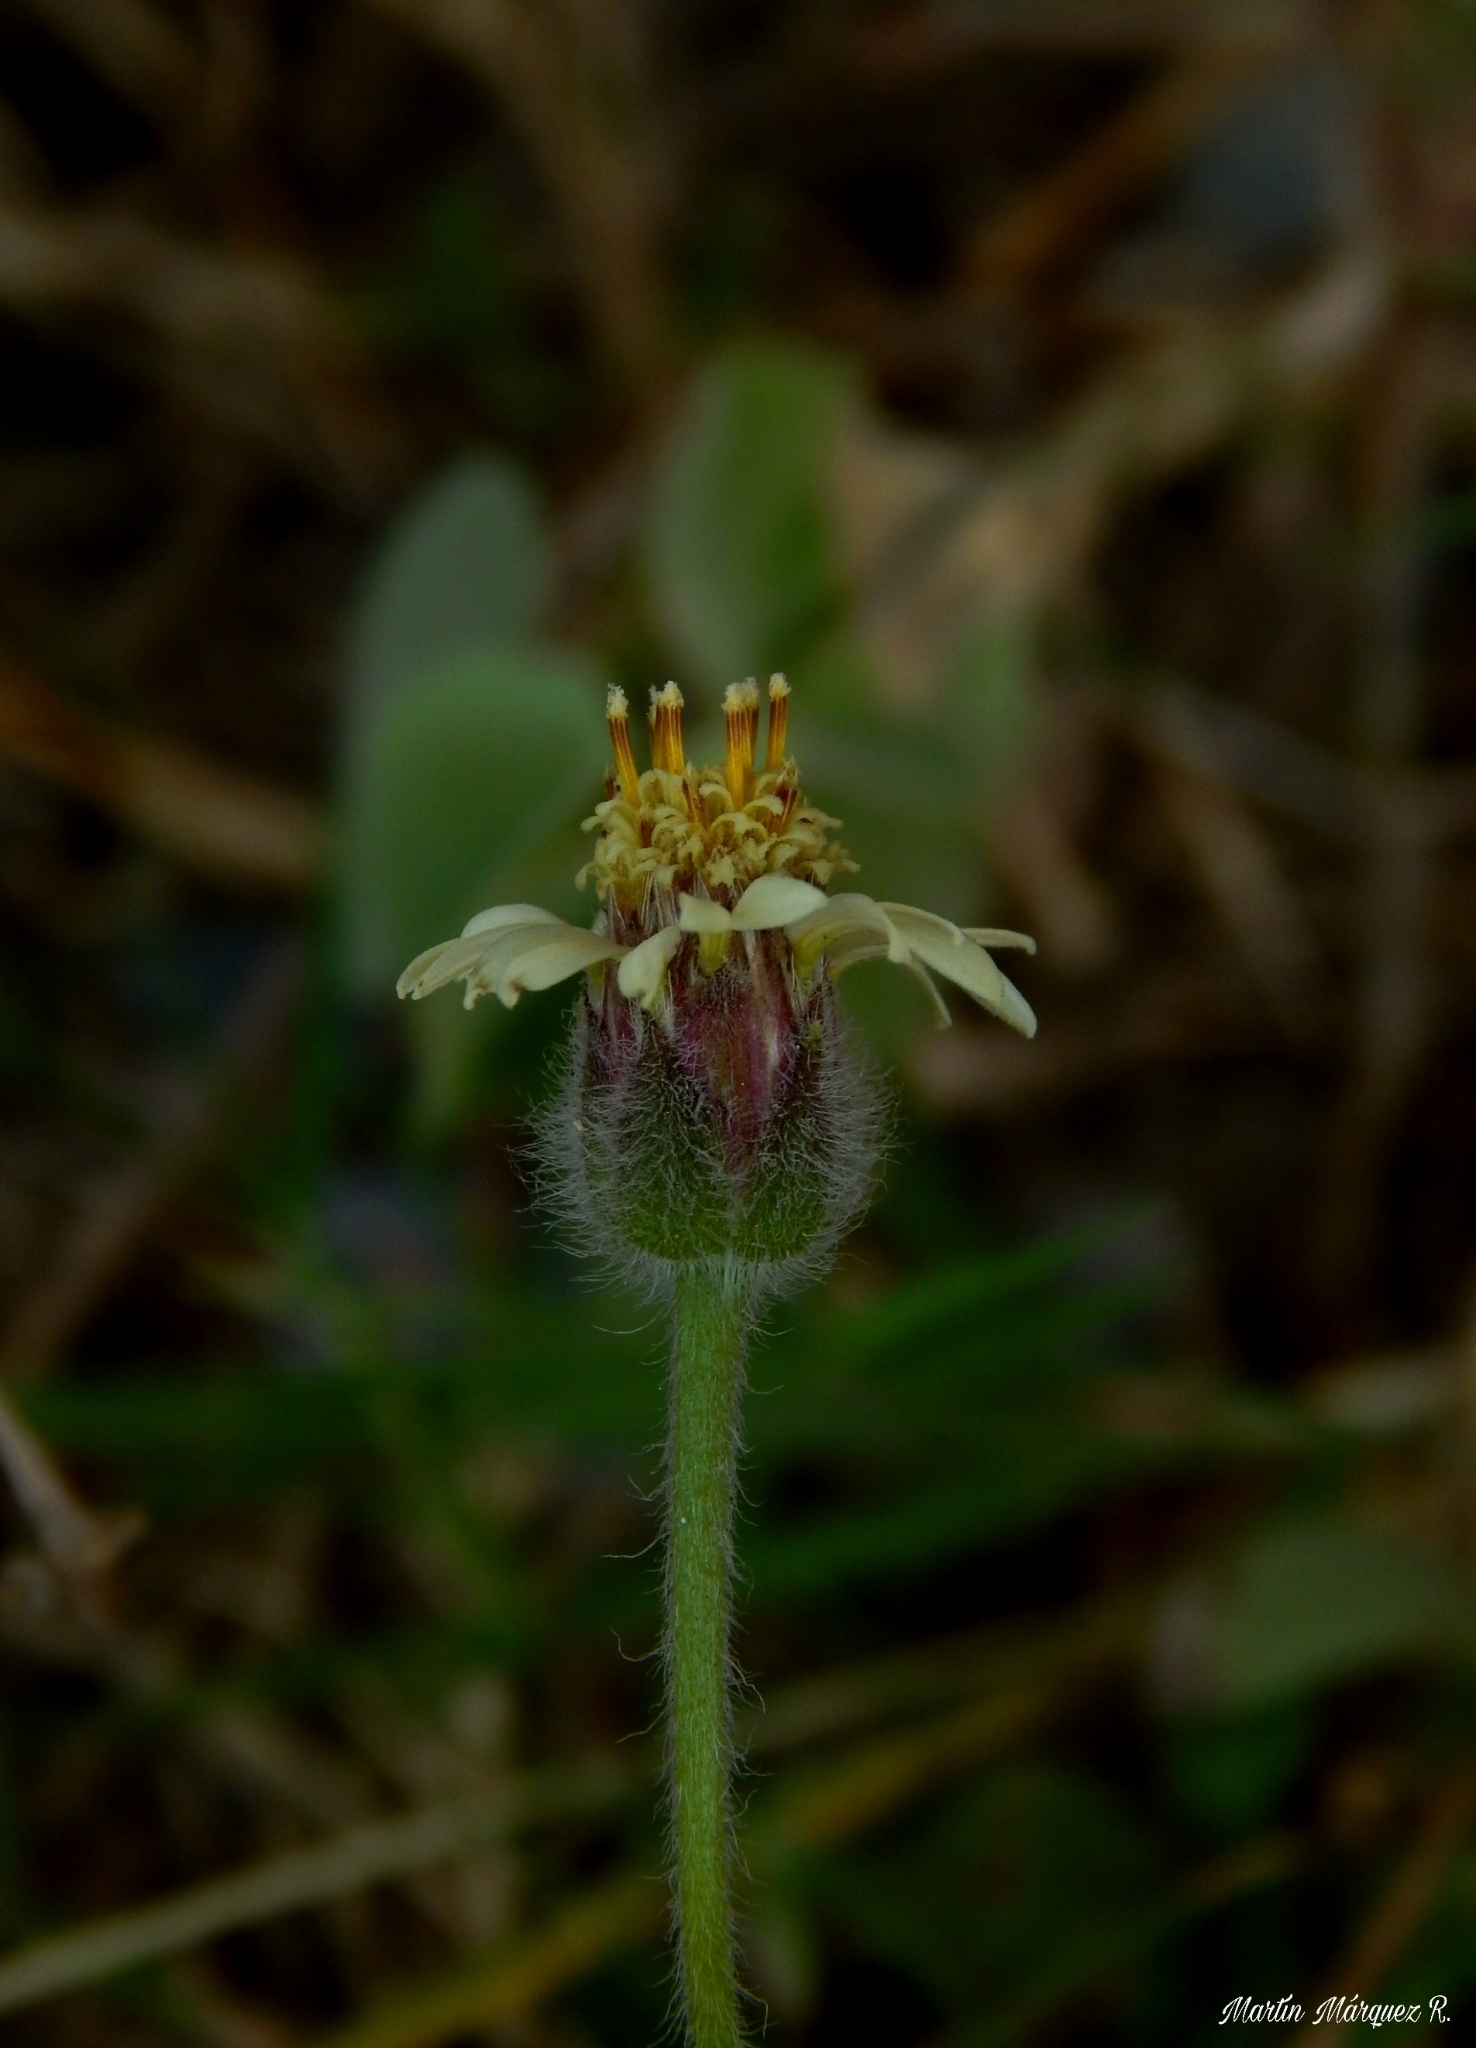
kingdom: Plantae
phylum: Tracheophyta
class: Magnoliopsida
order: Asterales
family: Asteraceae
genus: Tridax
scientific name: Tridax procumbens
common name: Coatbuttons
